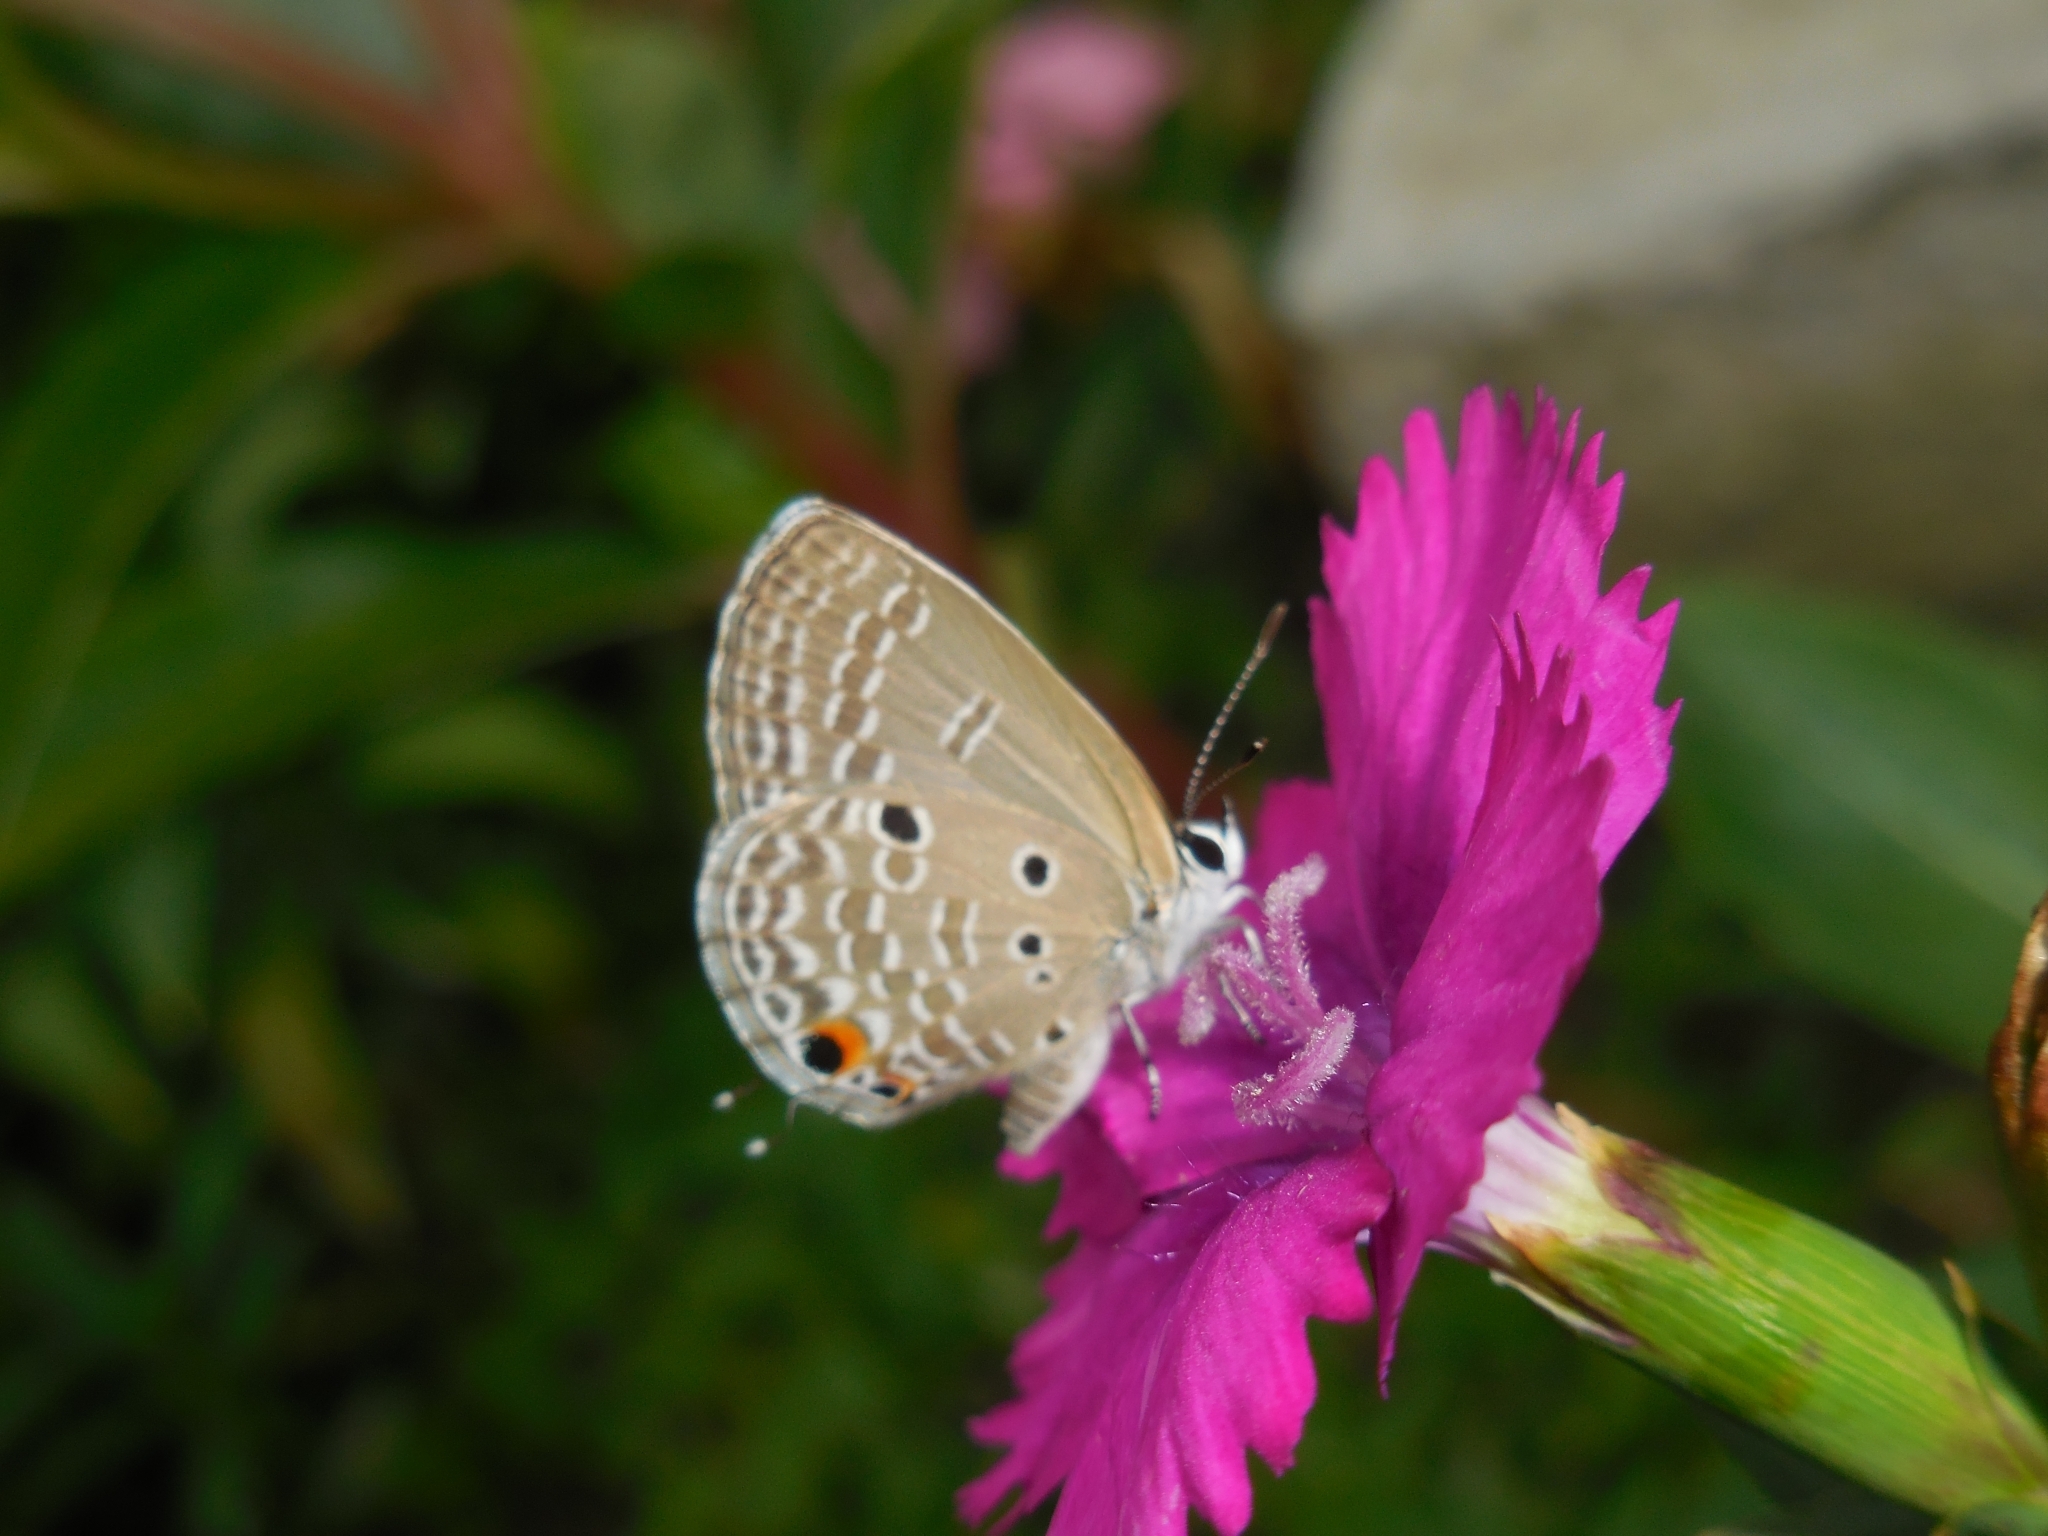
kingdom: Animalia
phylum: Arthropoda
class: Insecta
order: Lepidoptera
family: Lycaenidae
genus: Luthrodes
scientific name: Luthrodes pandava
